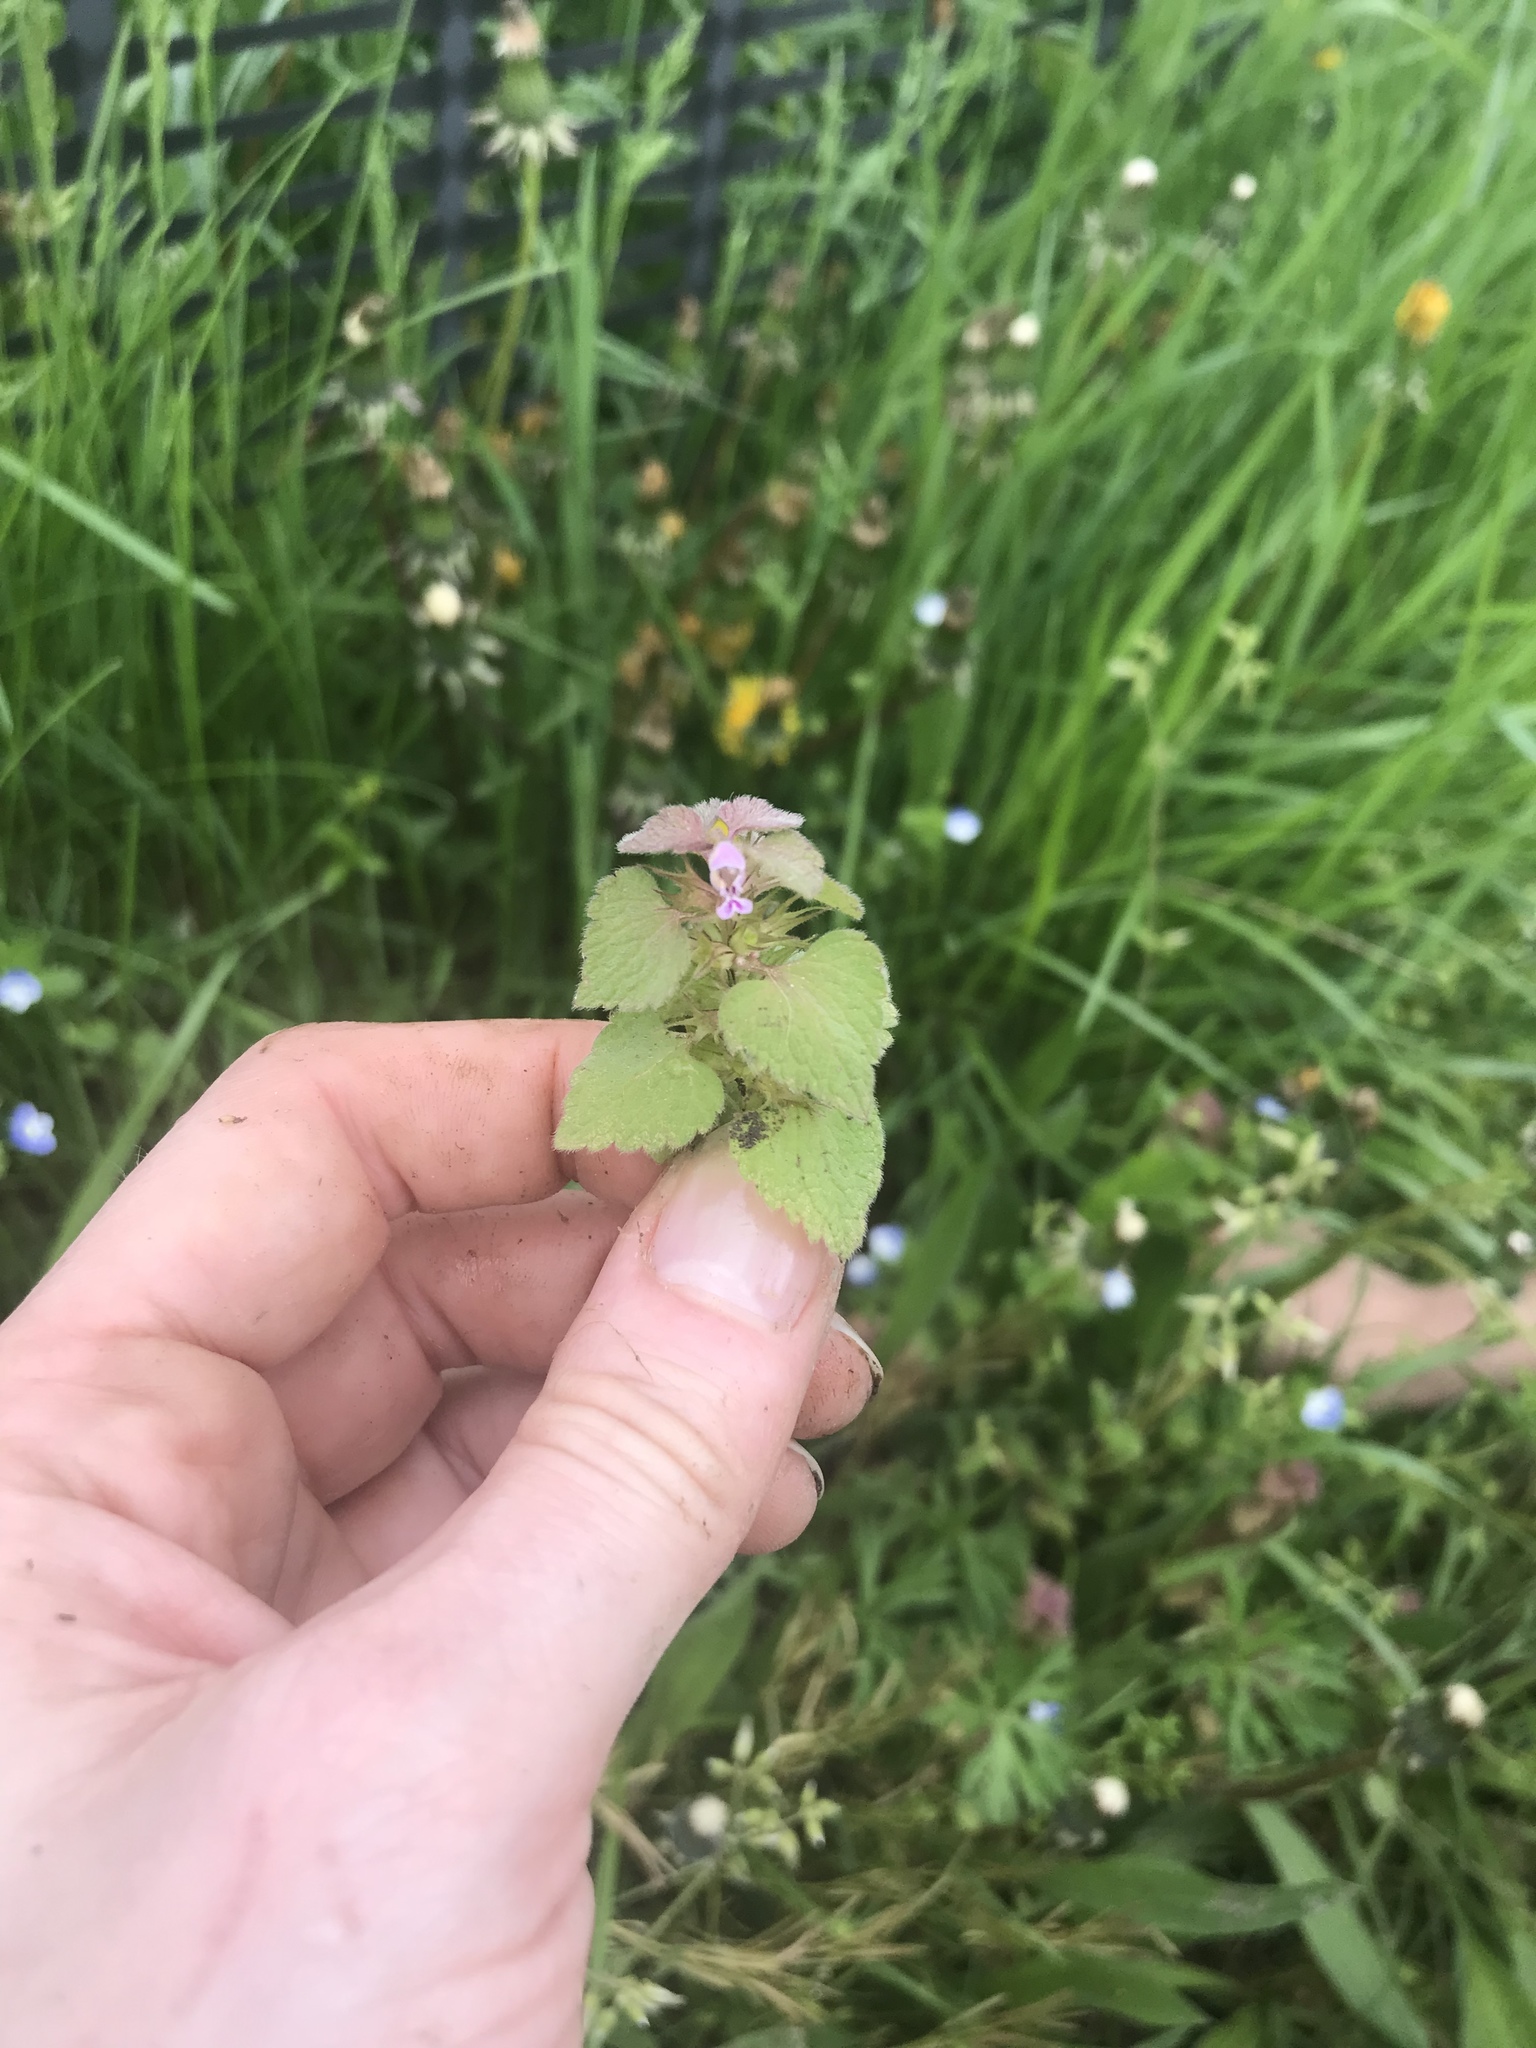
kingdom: Plantae
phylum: Tracheophyta
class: Magnoliopsida
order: Lamiales
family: Lamiaceae
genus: Lamium
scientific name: Lamium purpureum
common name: Red dead-nettle
